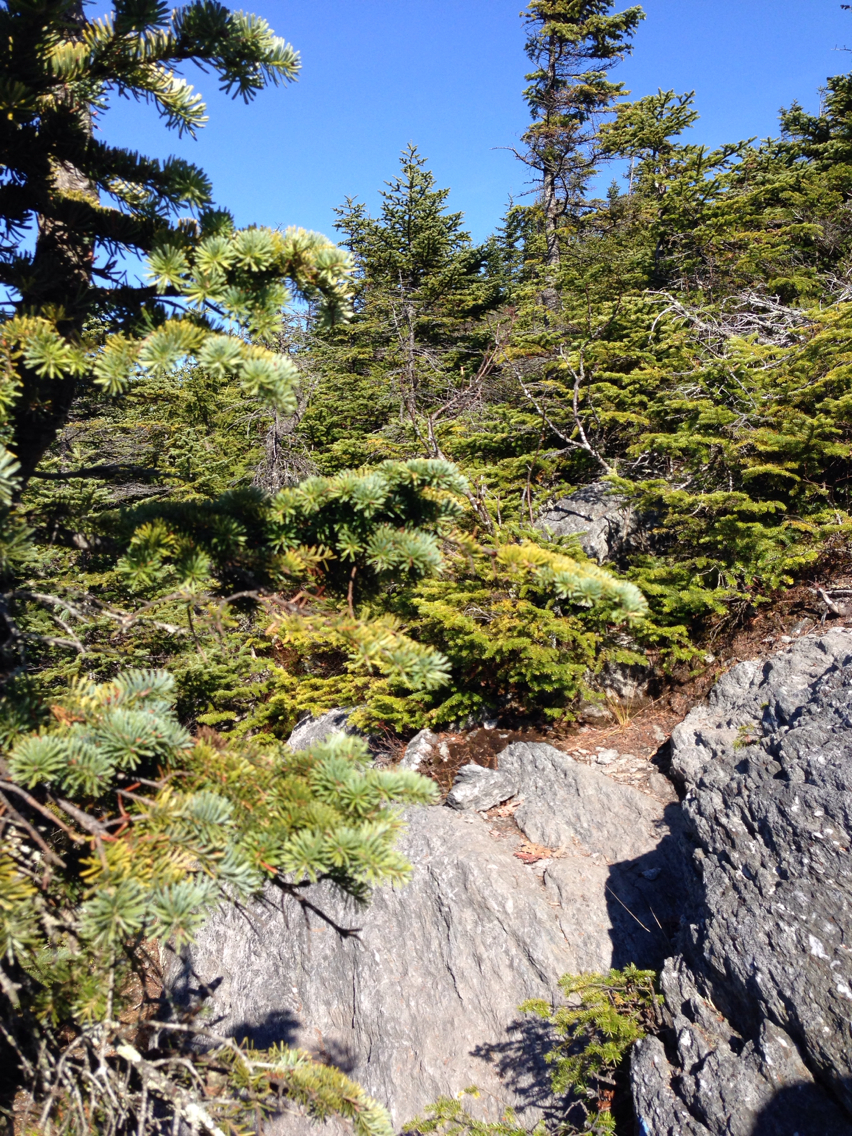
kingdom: Plantae
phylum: Tracheophyta
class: Pinopsida
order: Pinales
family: Pinaceae
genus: Abies
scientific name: Abies balsamea
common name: Balsam fir
